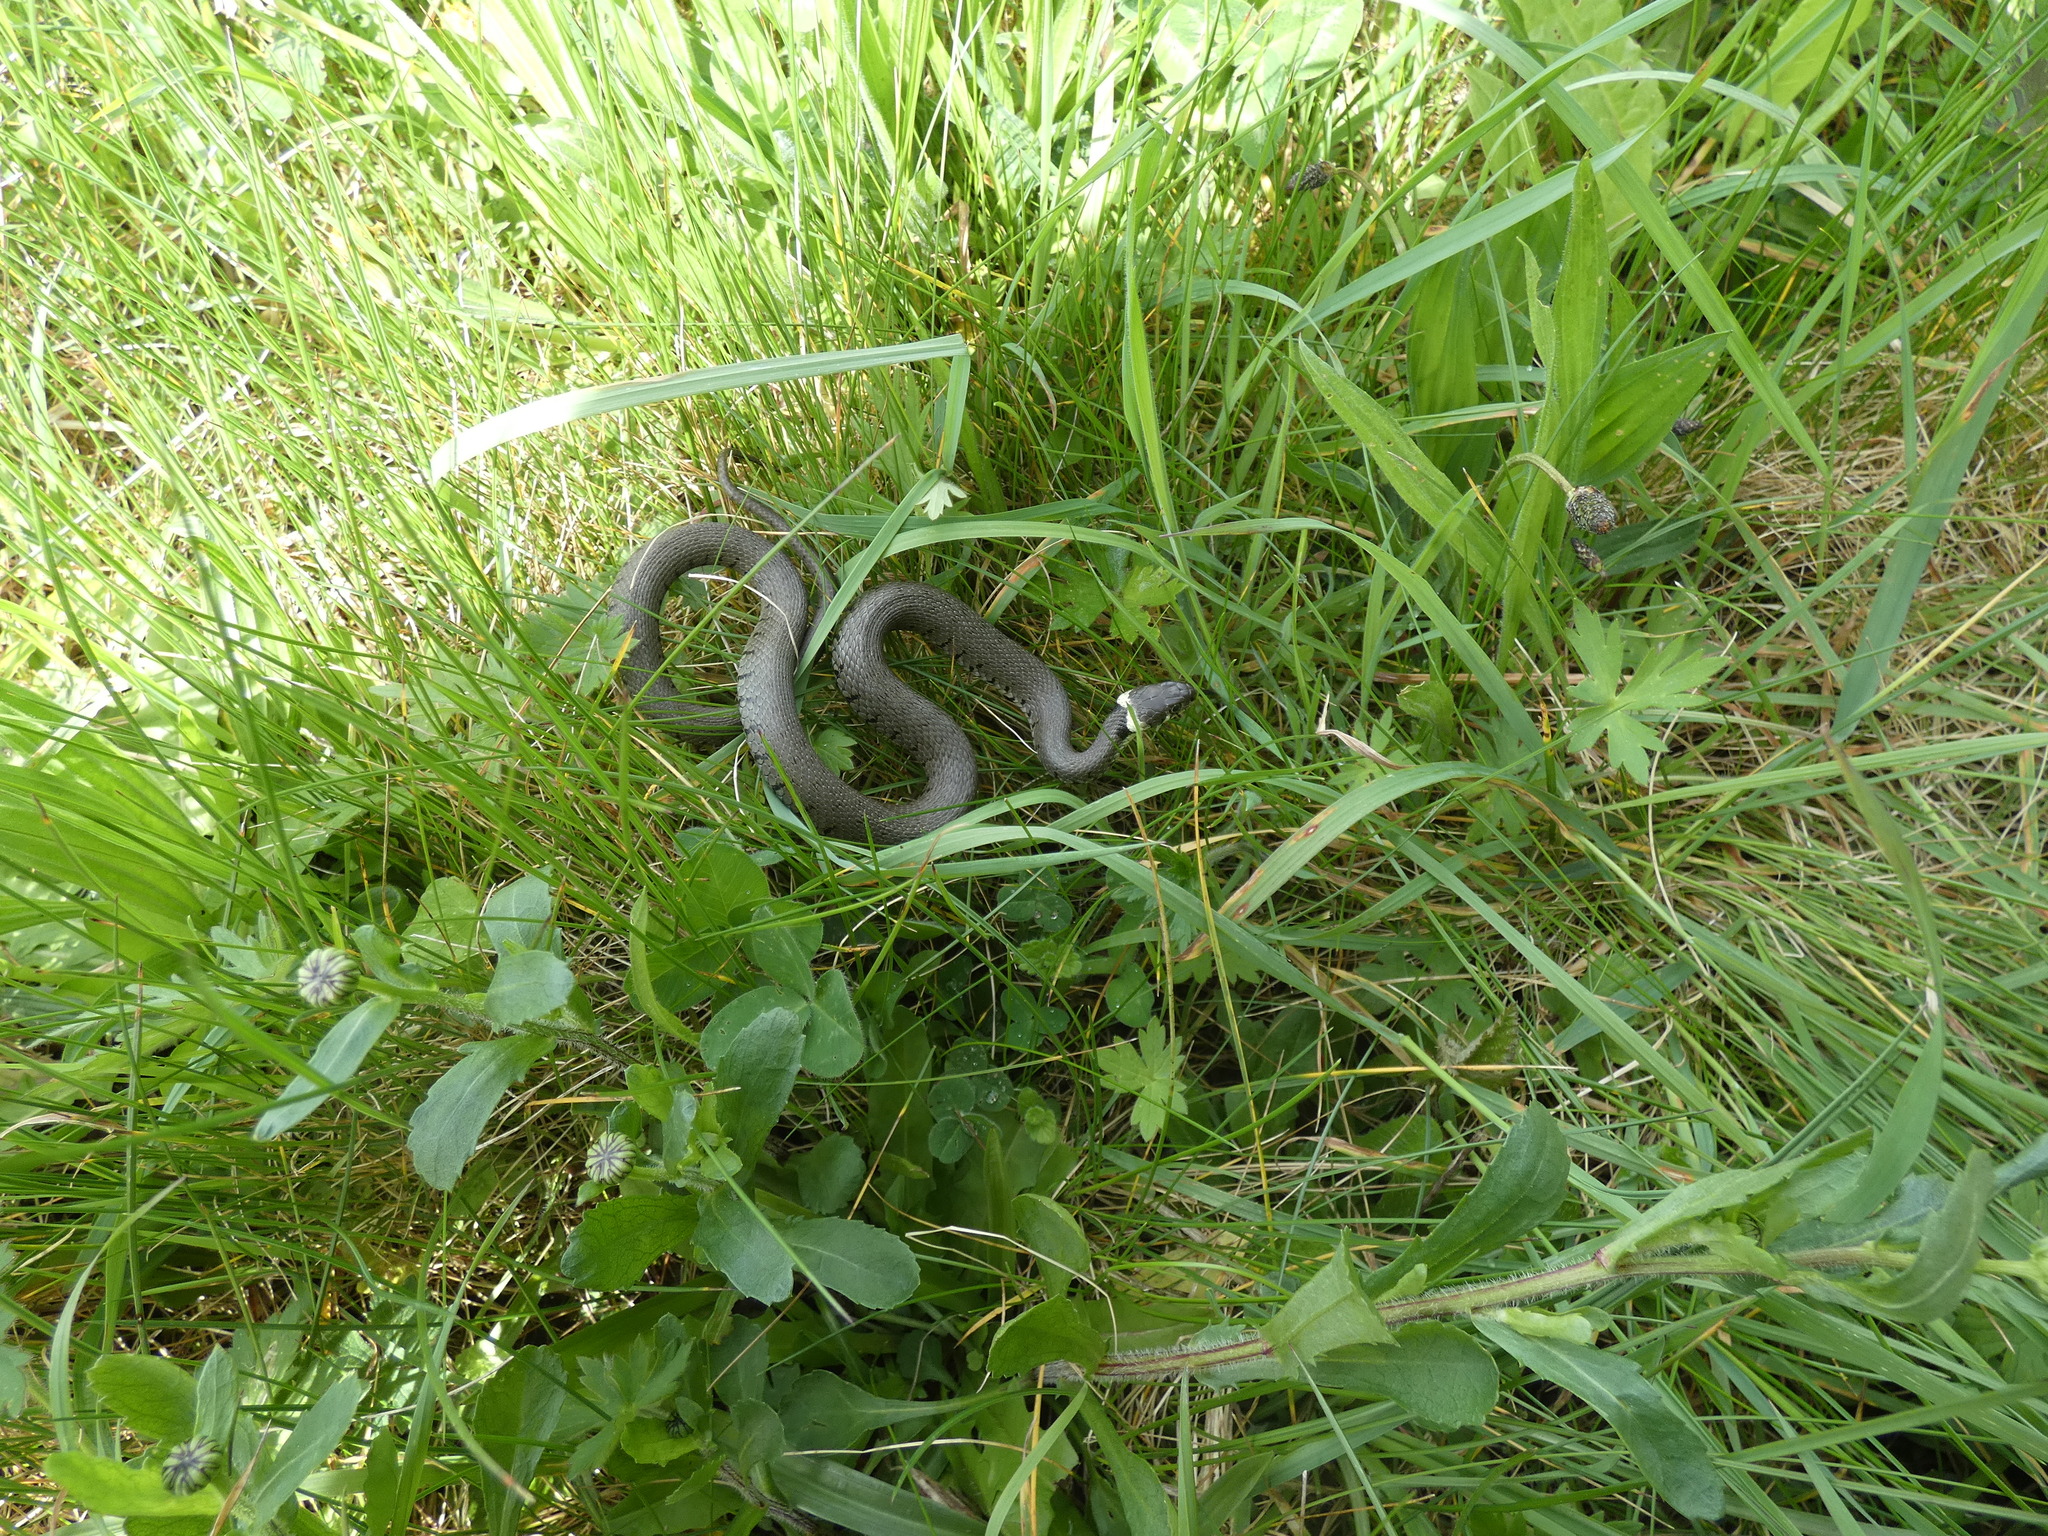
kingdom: Animalia
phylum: Chordata
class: Squamata
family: Colubridae
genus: Natrix
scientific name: Natrix helvetica
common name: Banded grass snake
